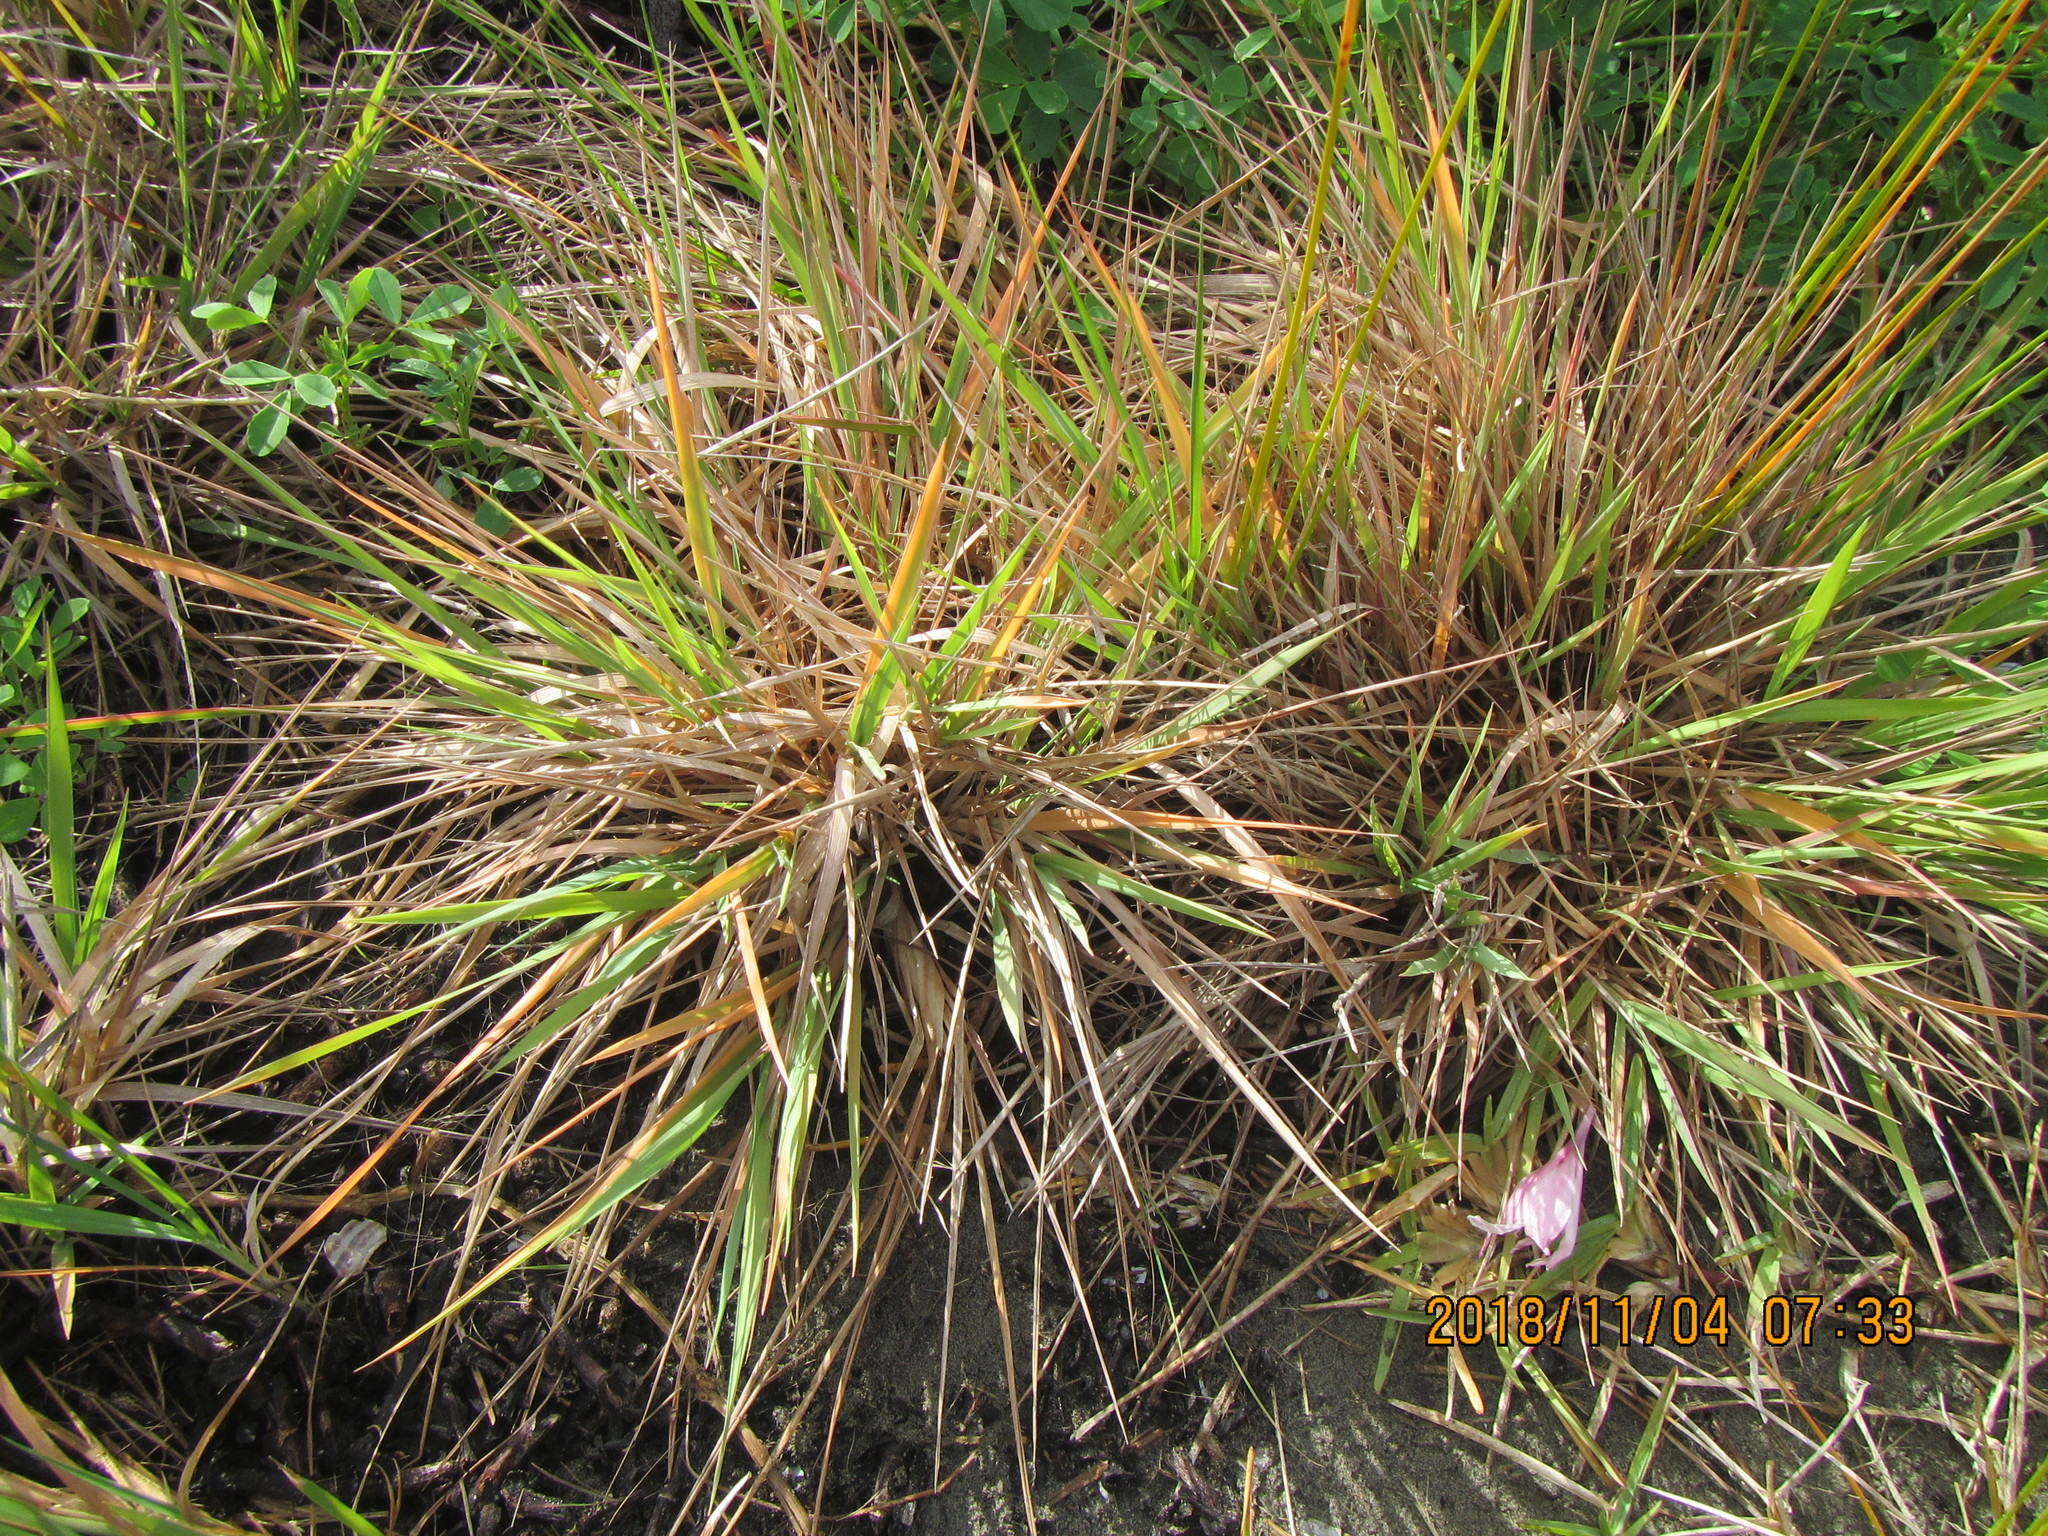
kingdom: Plantae
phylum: Tracheophyta
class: Liliopsida
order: Poales
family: Poaceae
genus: Lachnagrostis
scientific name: Lachnagrostis billardierei
